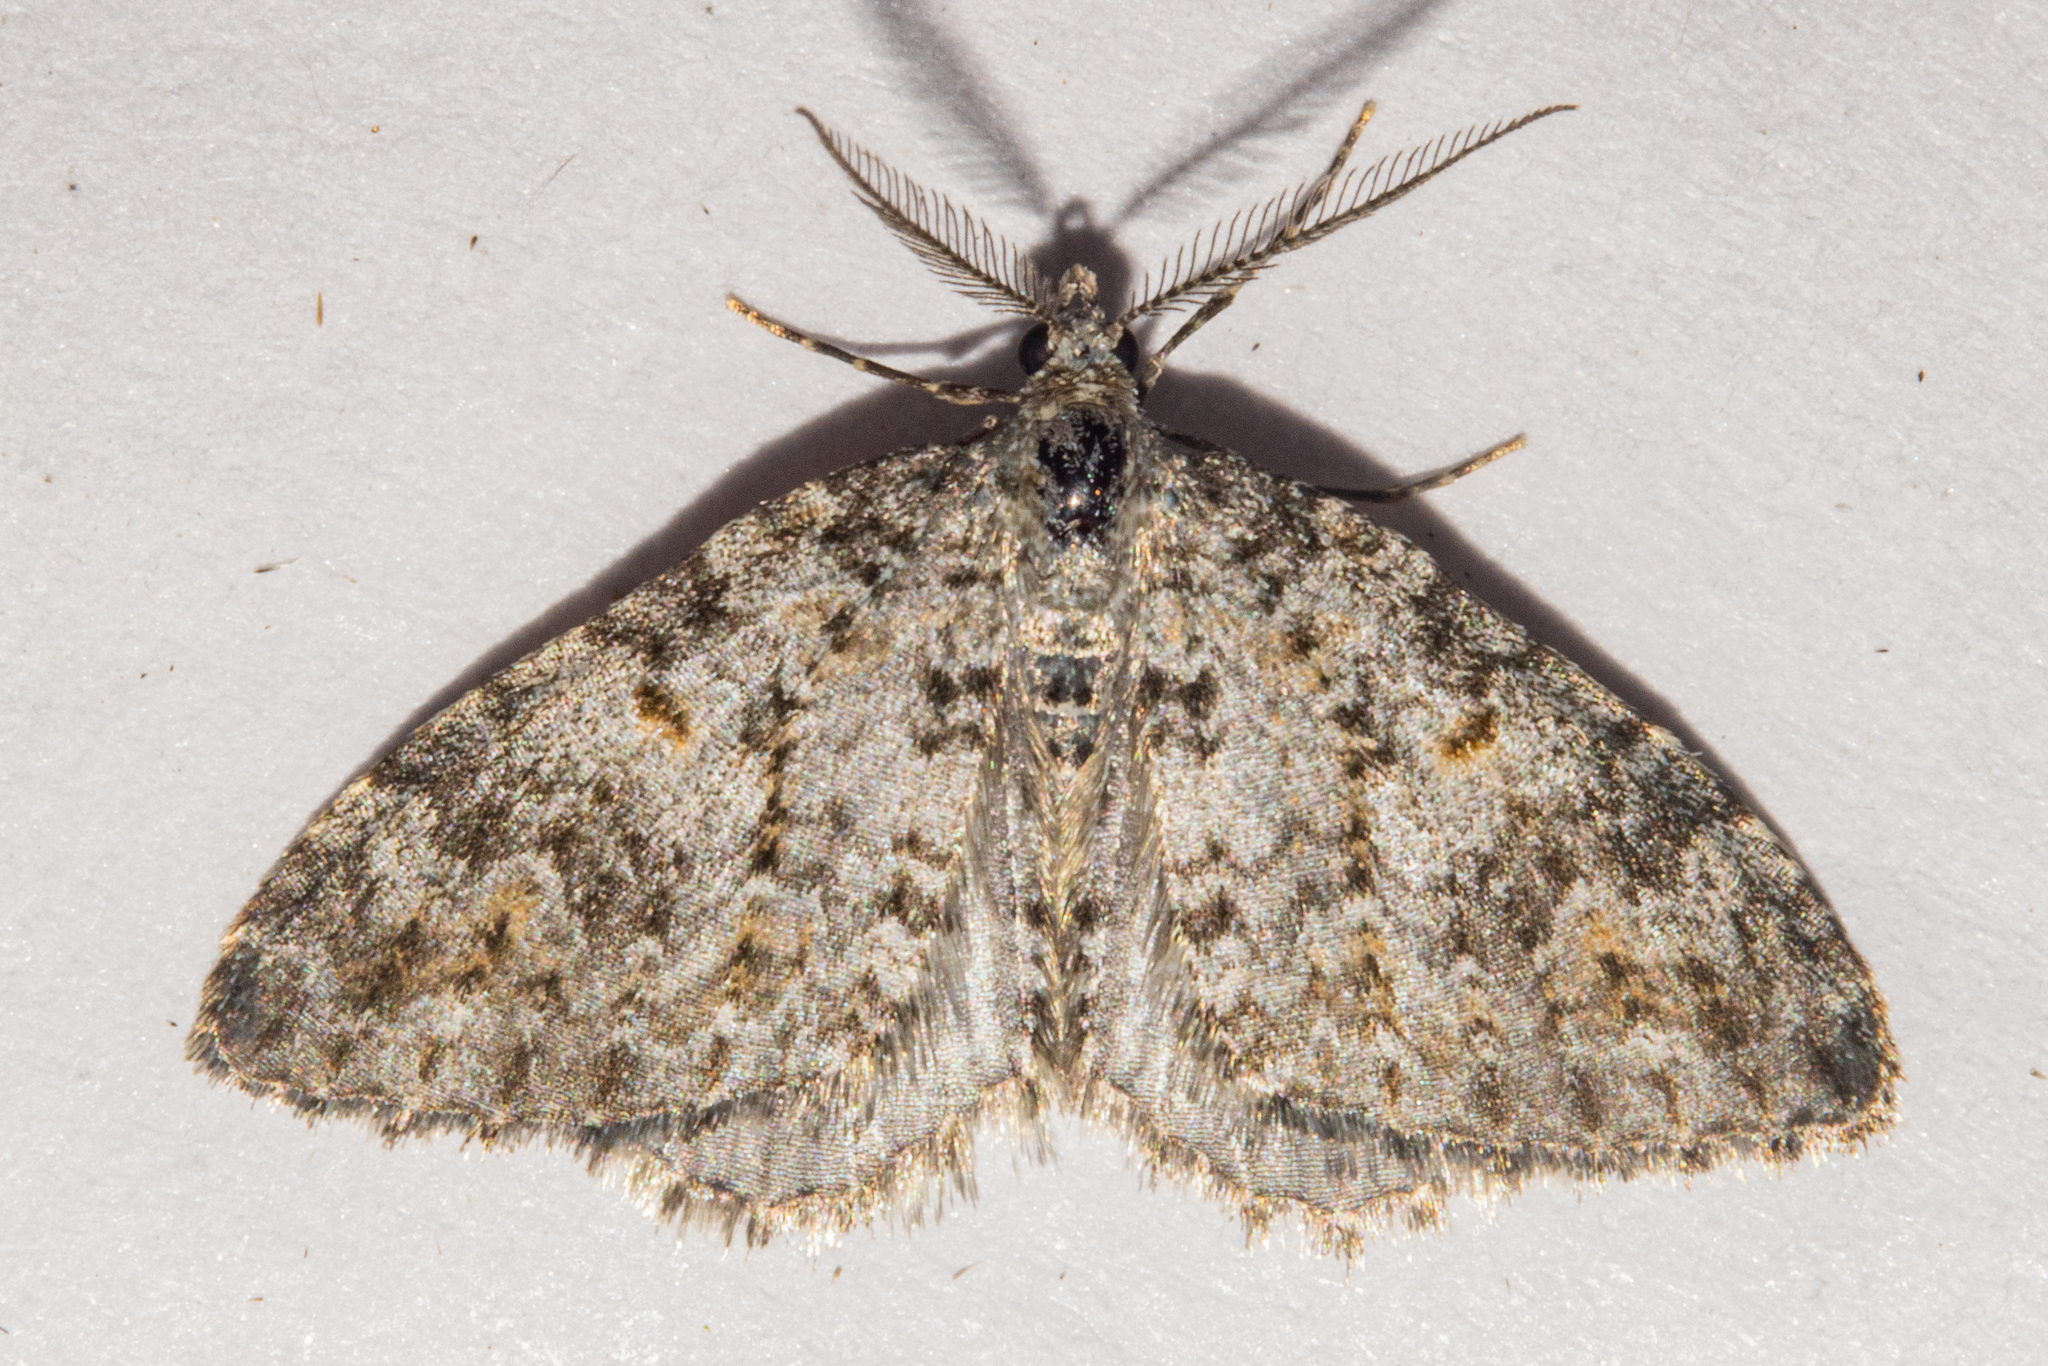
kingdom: Animalia
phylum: Arthropoda
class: Insecta
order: Lepidoptera
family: Geometridae
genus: Helastia
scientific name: Helastia plumbea
